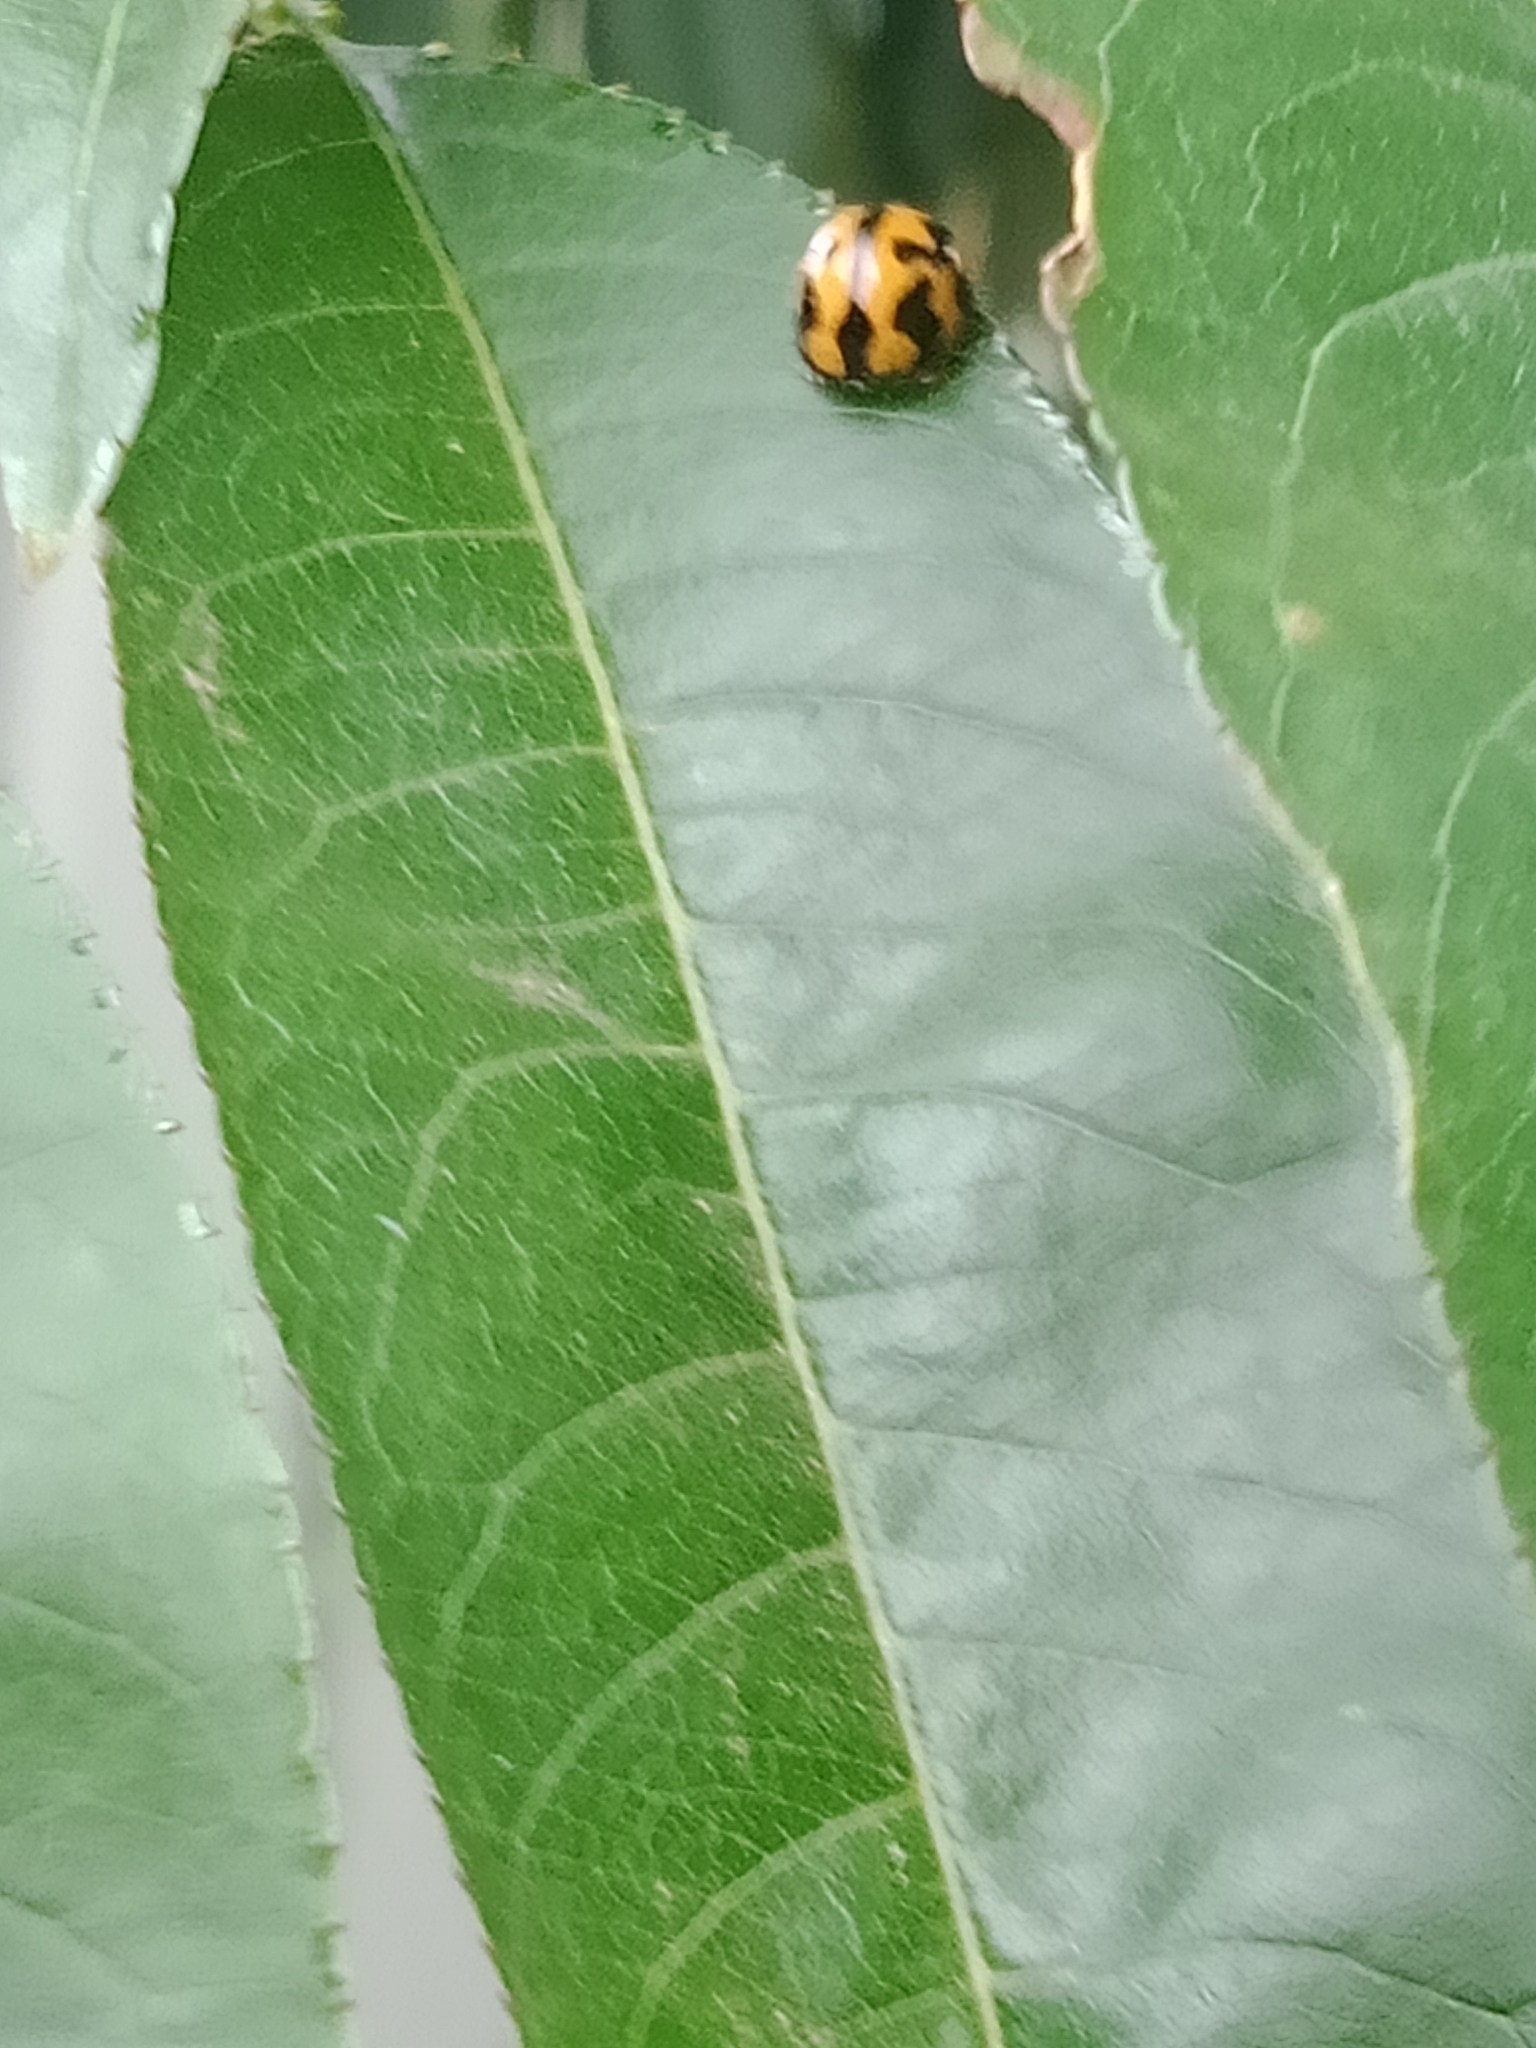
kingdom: Animalia
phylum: Arthropoda
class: Insecta
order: Coleoptera
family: Coccinellidae
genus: Coelophora
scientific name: Coelophora inaequalis
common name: Common australian lady beetle
